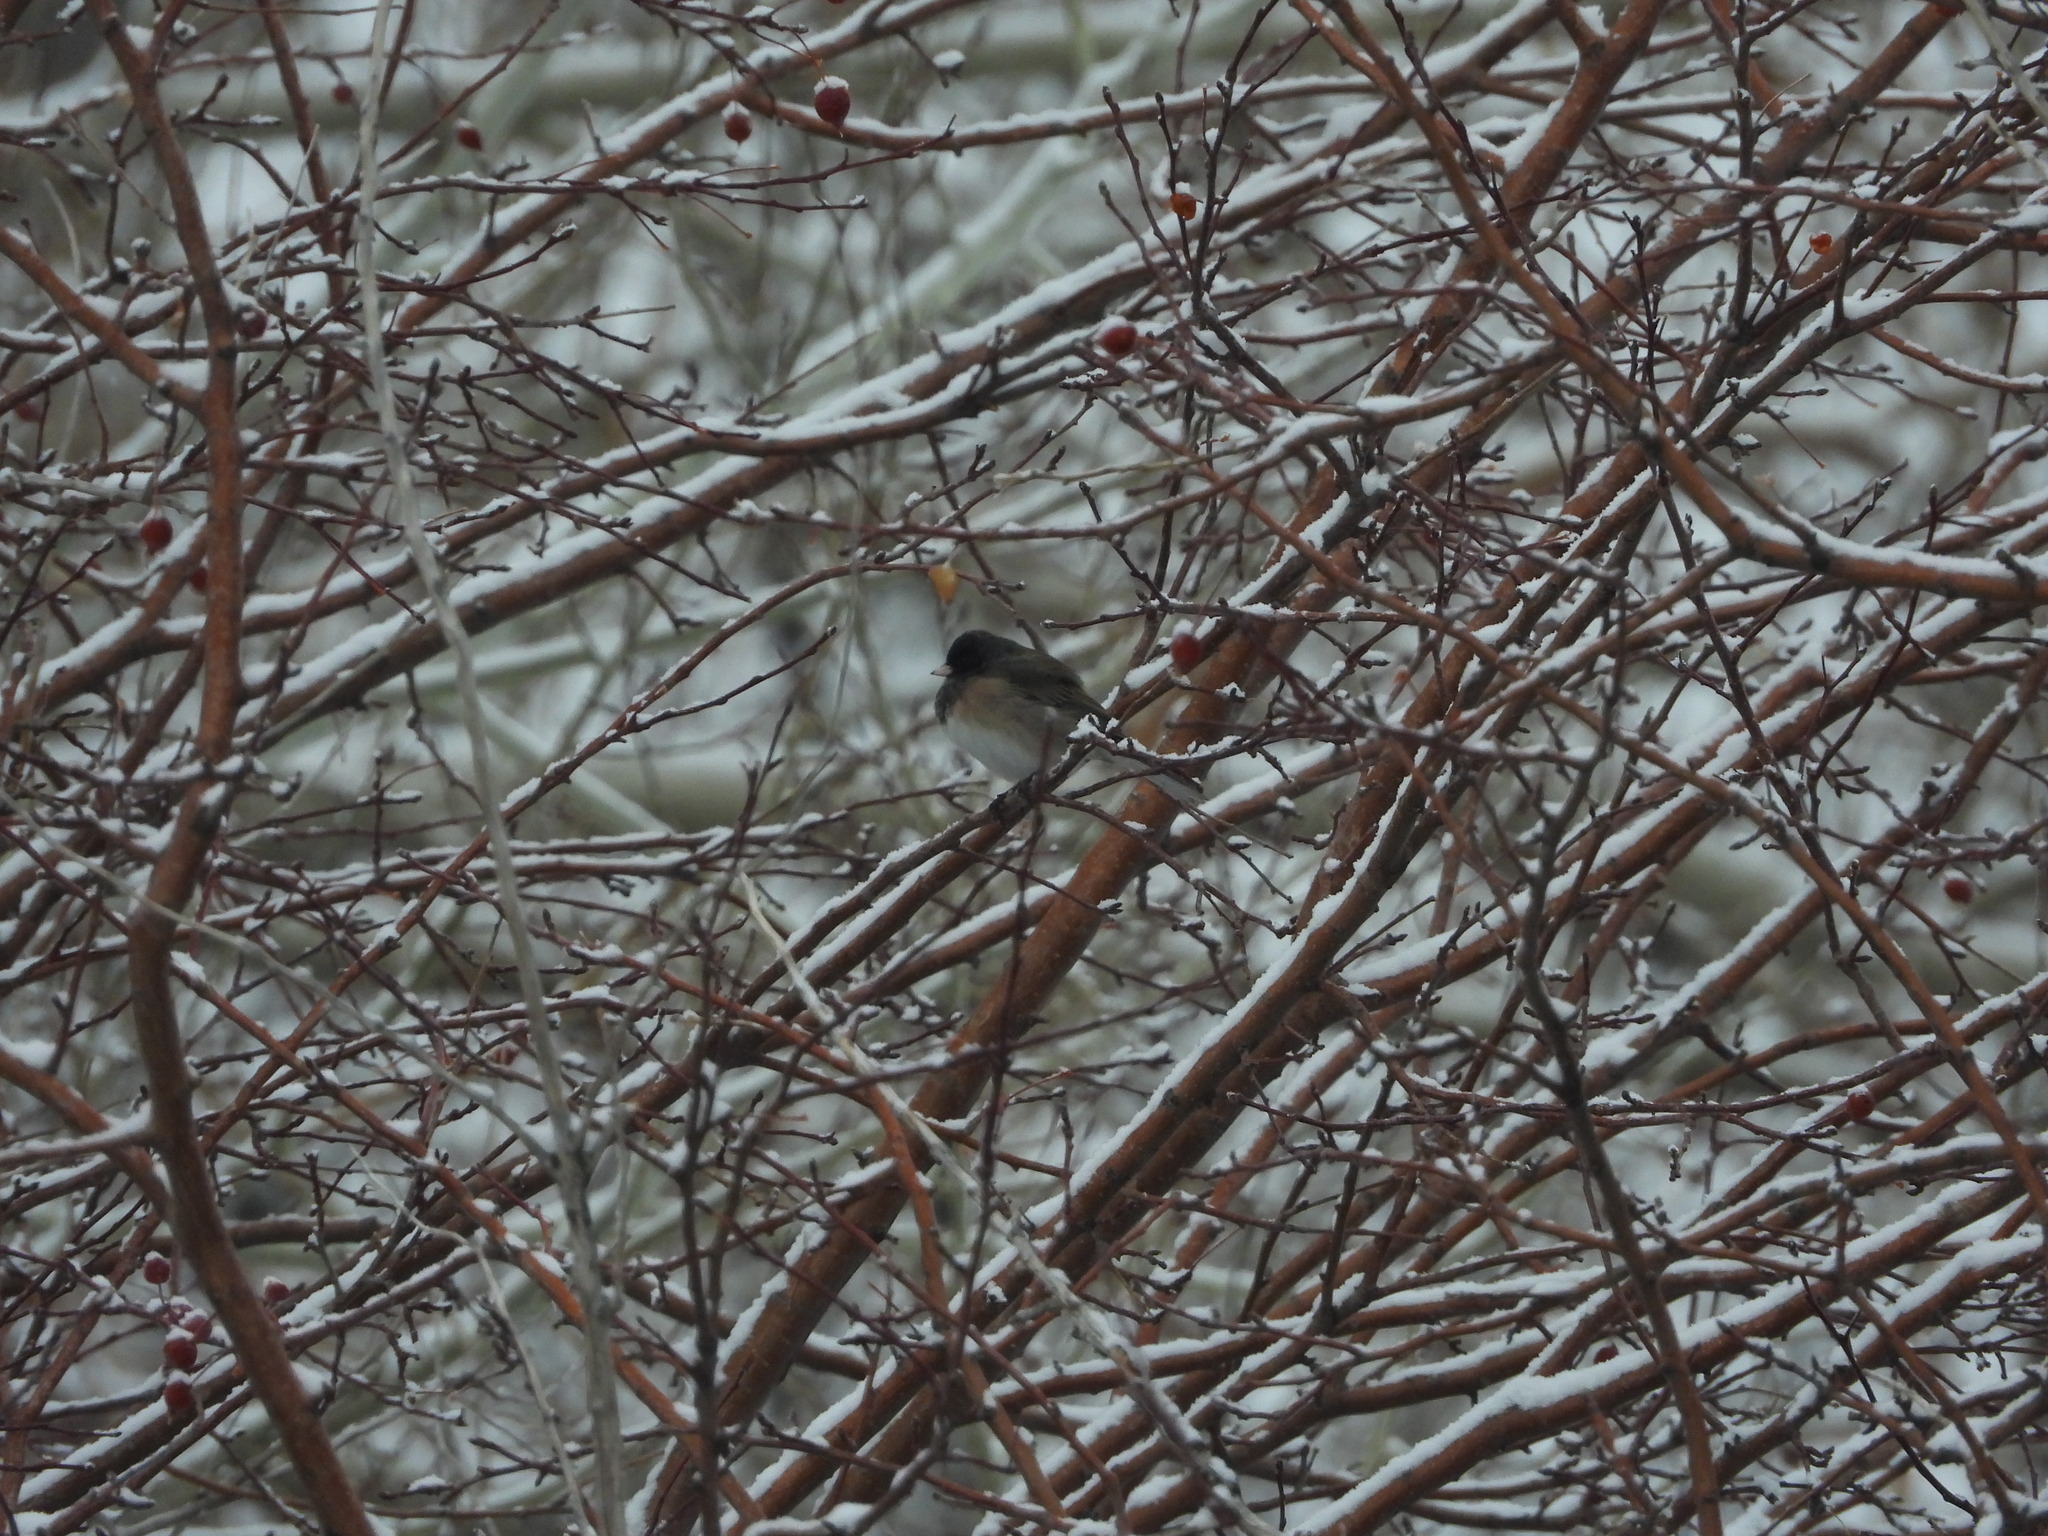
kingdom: Animalia
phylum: Chordata
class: Aves
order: Passeriformes
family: Passerellidae
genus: Junco
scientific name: Junco hyemalis
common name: Dark-eyed junco
